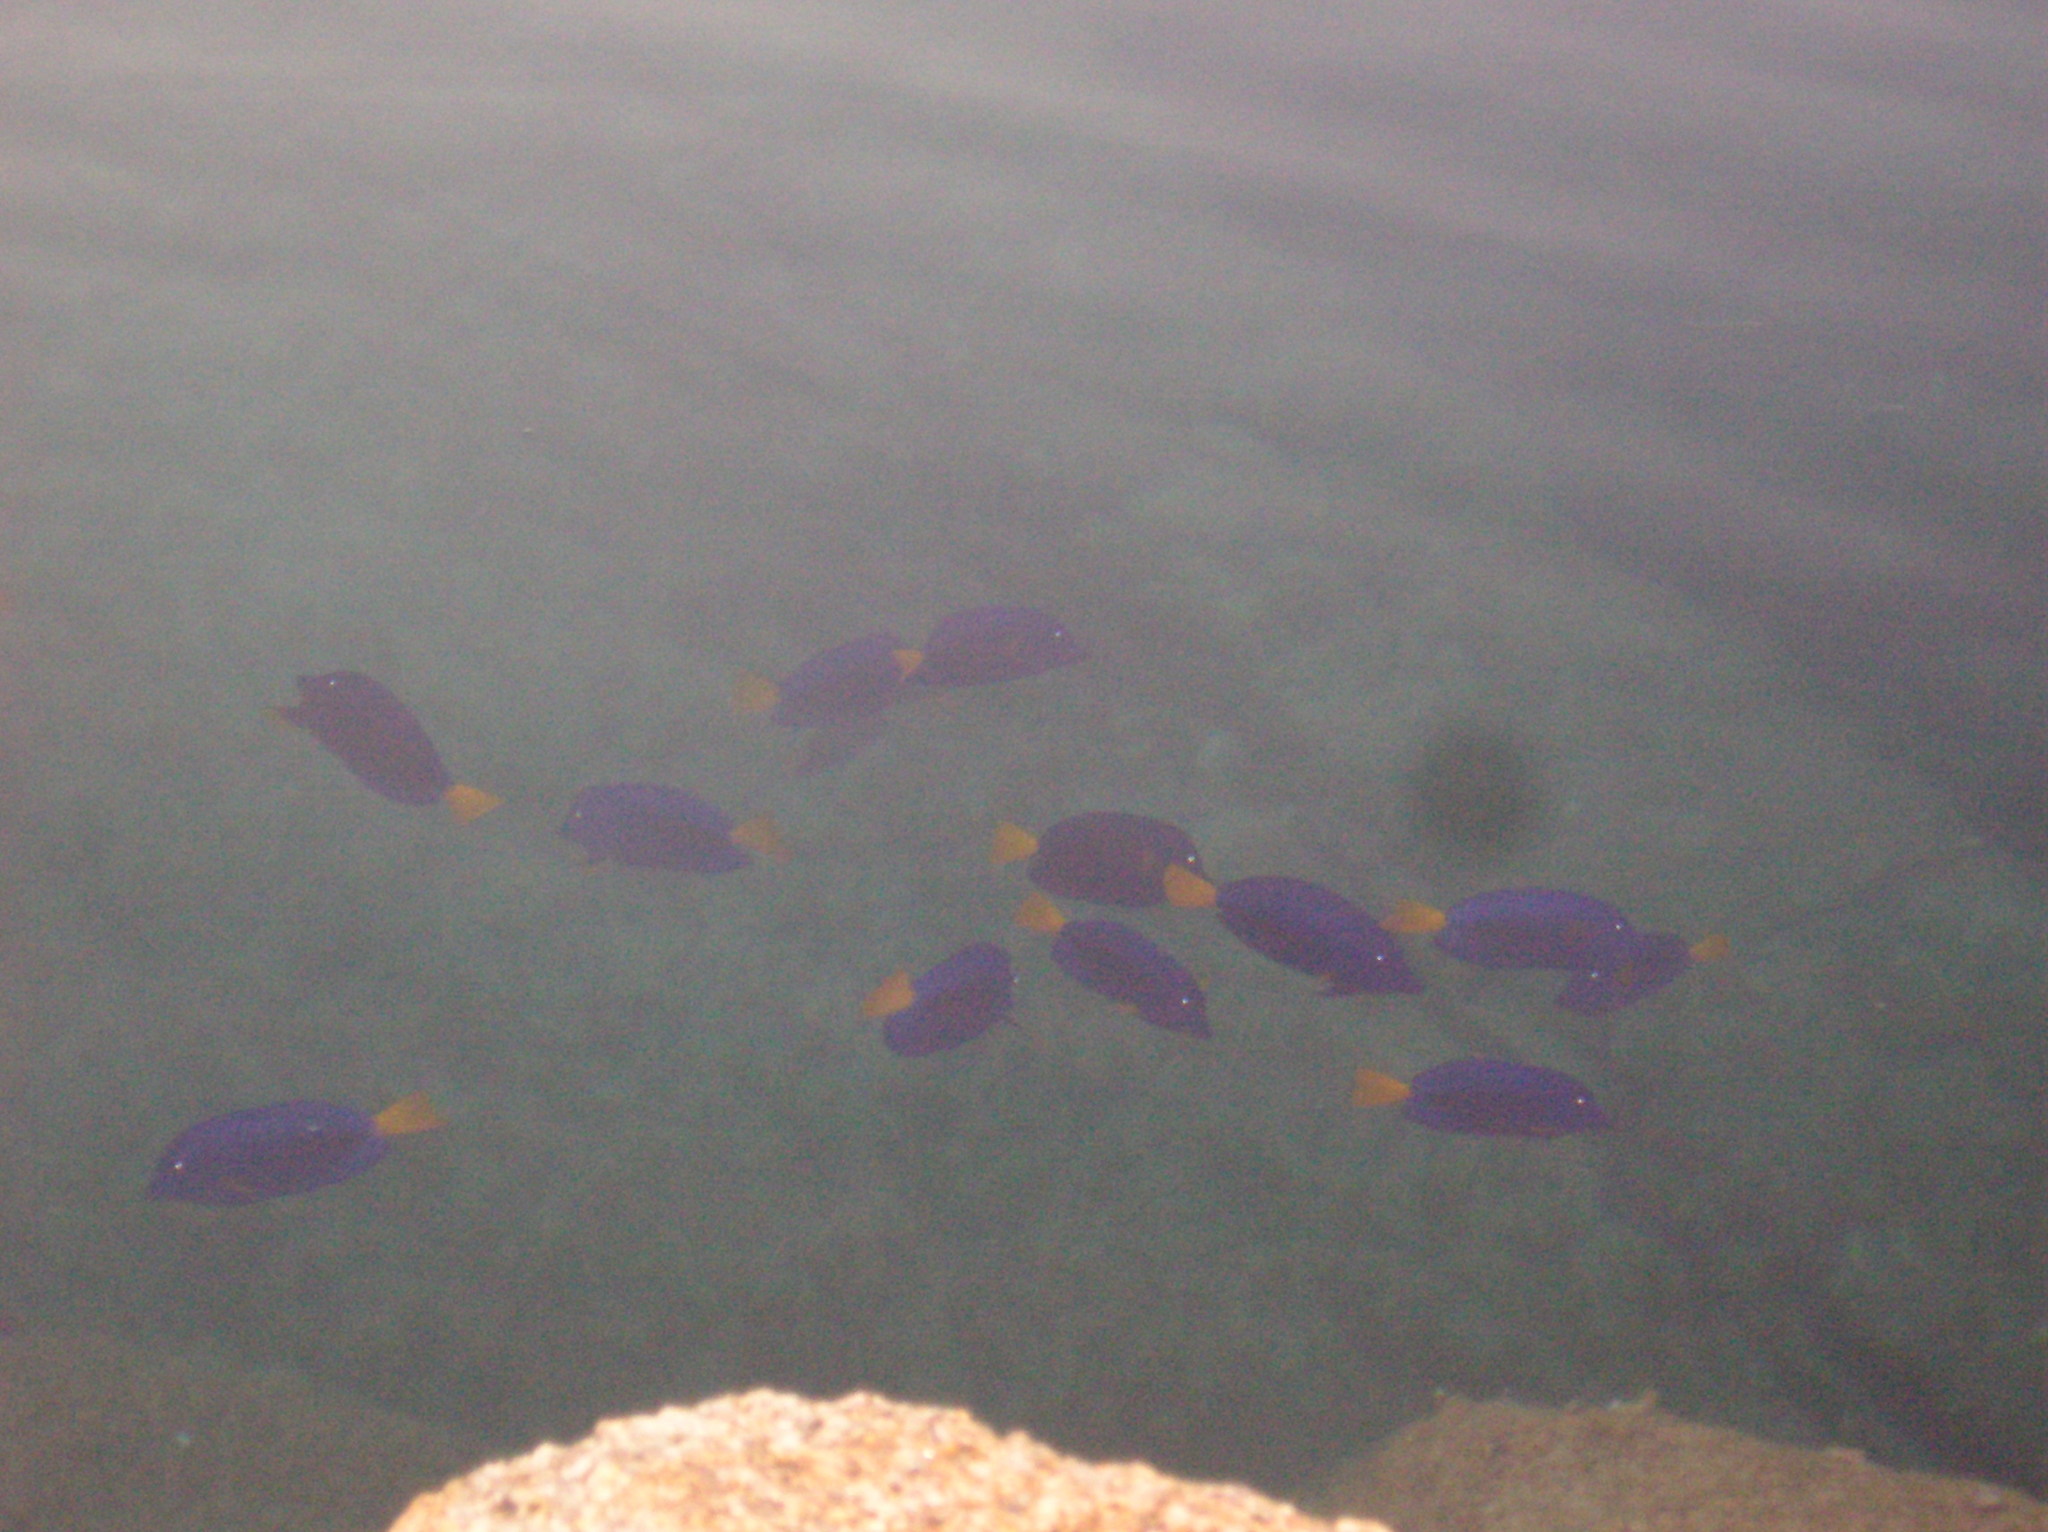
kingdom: Animalia
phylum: Chordata
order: Perciformes
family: Acanthuridae
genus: Zebrasoma
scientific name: Zebrasoma xanthurum
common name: Purple tang
